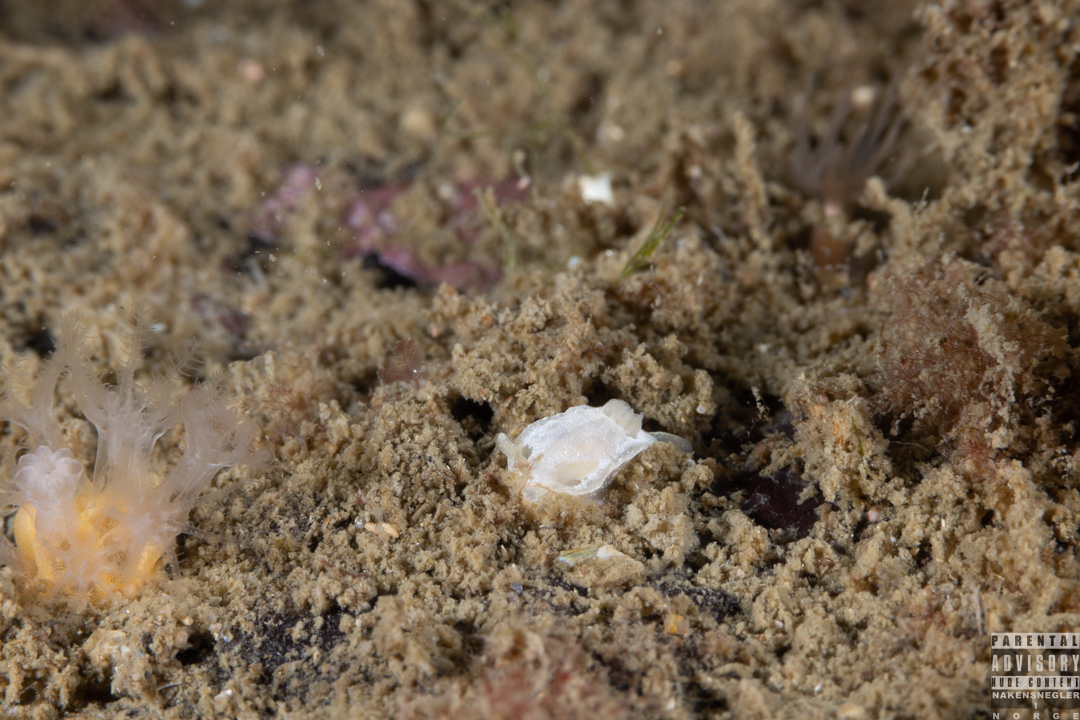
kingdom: Animalia
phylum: Mollusca
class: Gastropoda
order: Nudibranchia
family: Goniodorididae
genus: Okenia
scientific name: Okenia
